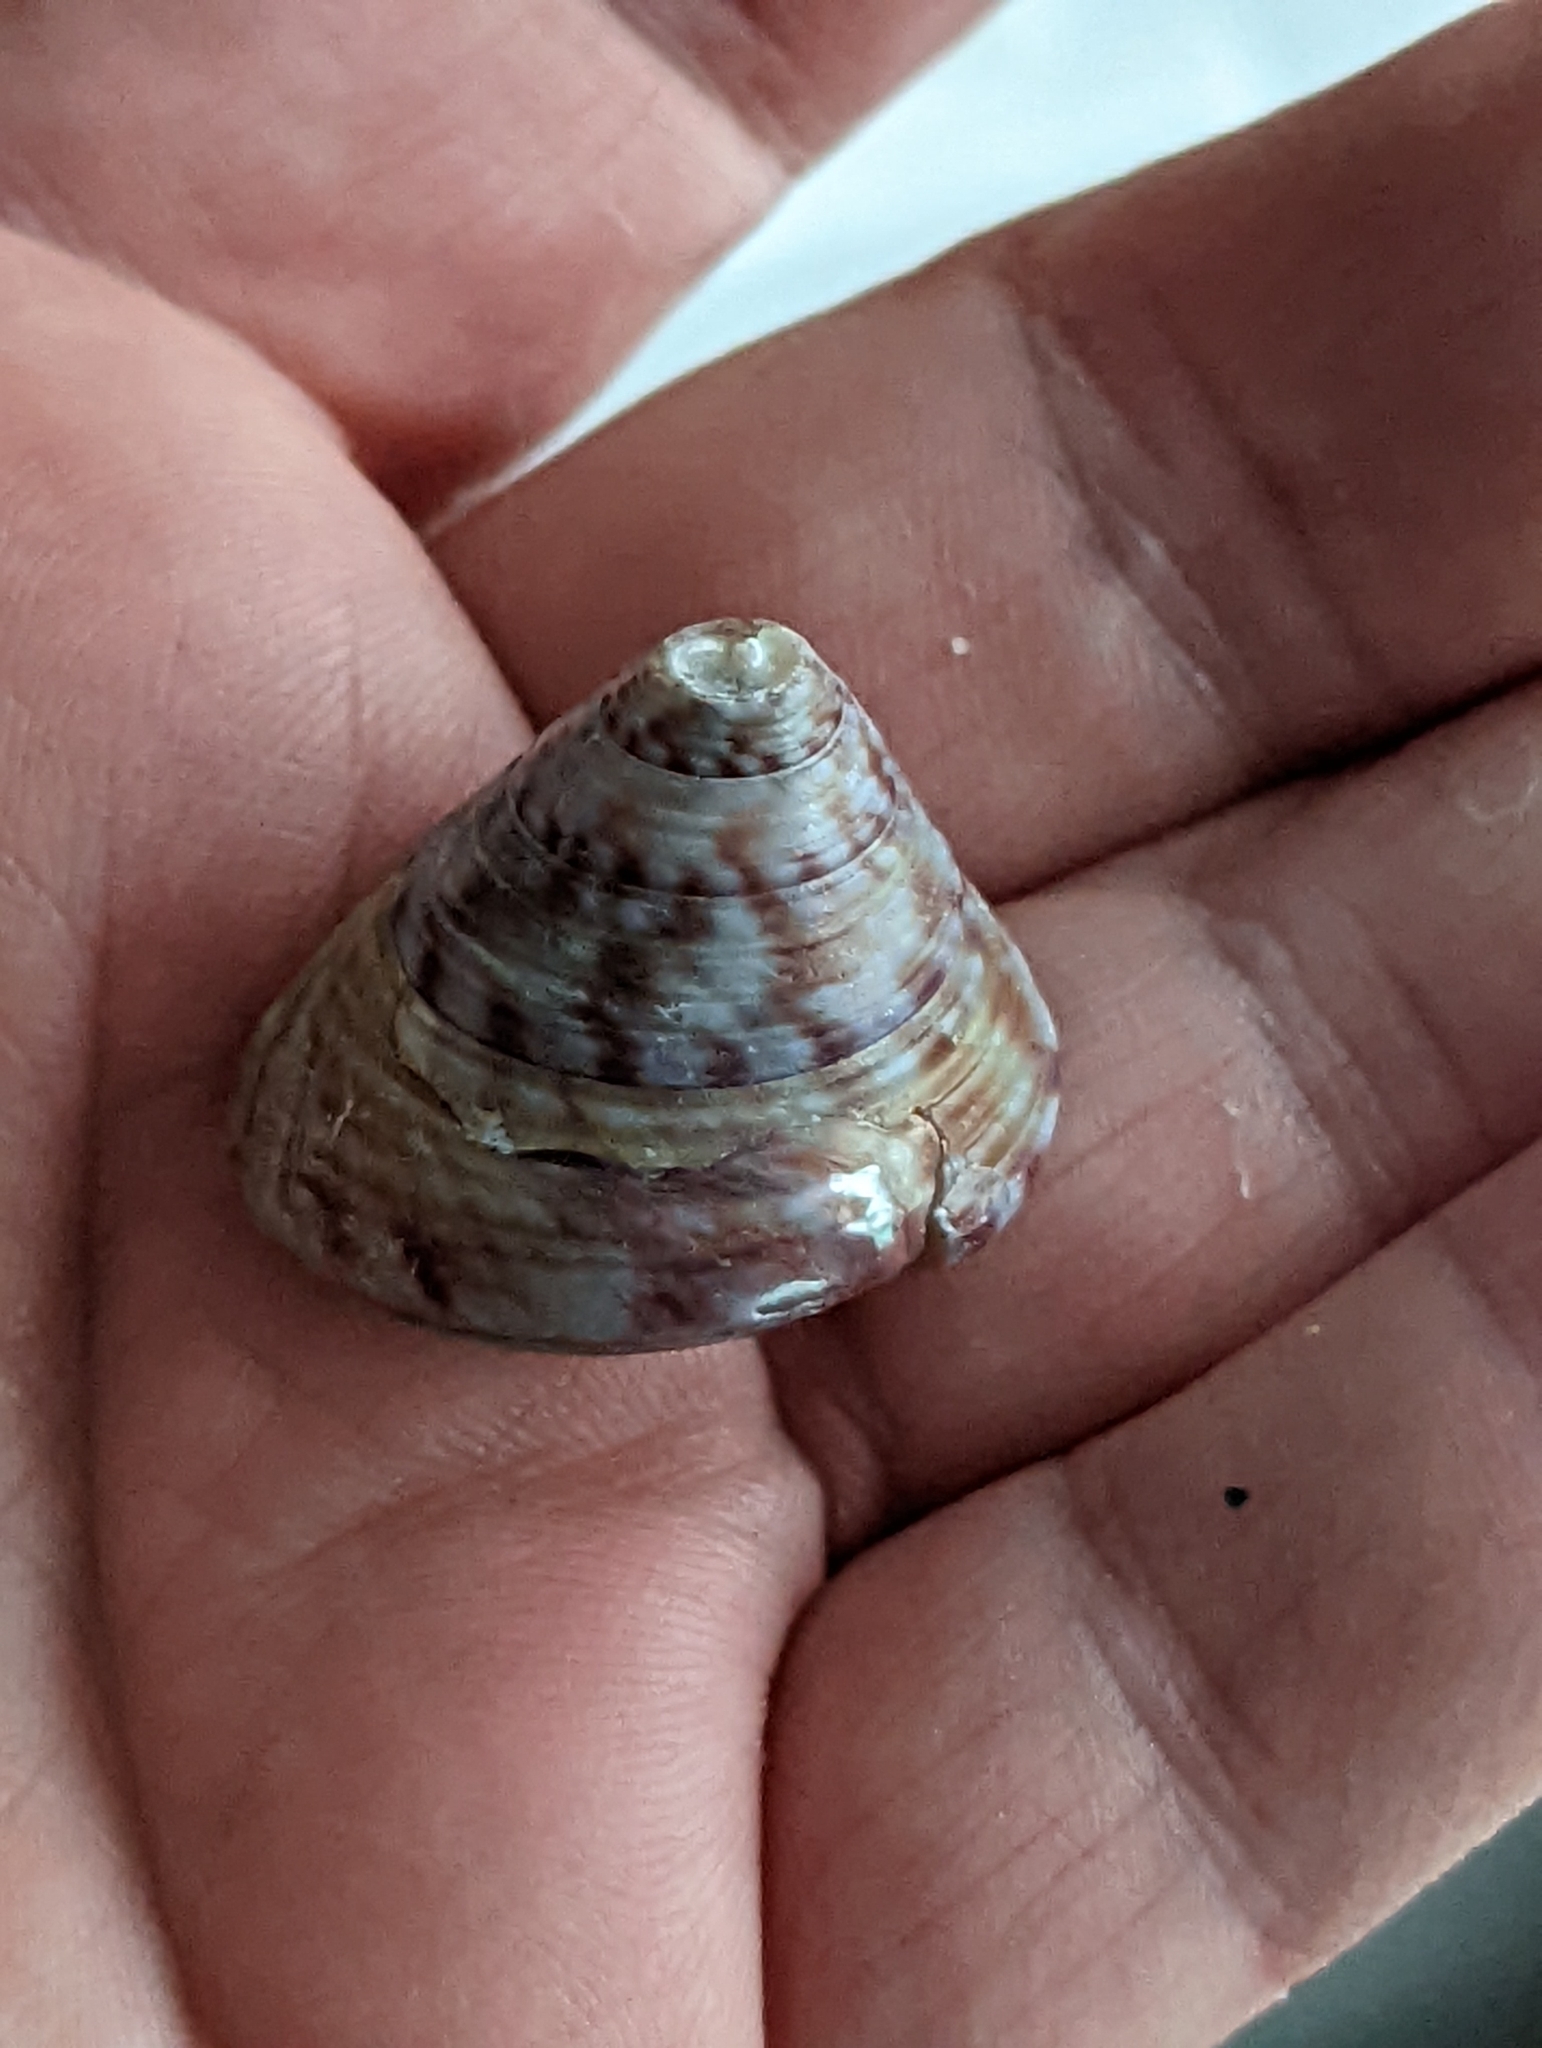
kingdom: Animalia
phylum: Mollusca
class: Gastropoda
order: Trochida
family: Calliostomatidae
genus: Calliostoma
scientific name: Calliostoma zizyphinum
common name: Painted top shell
